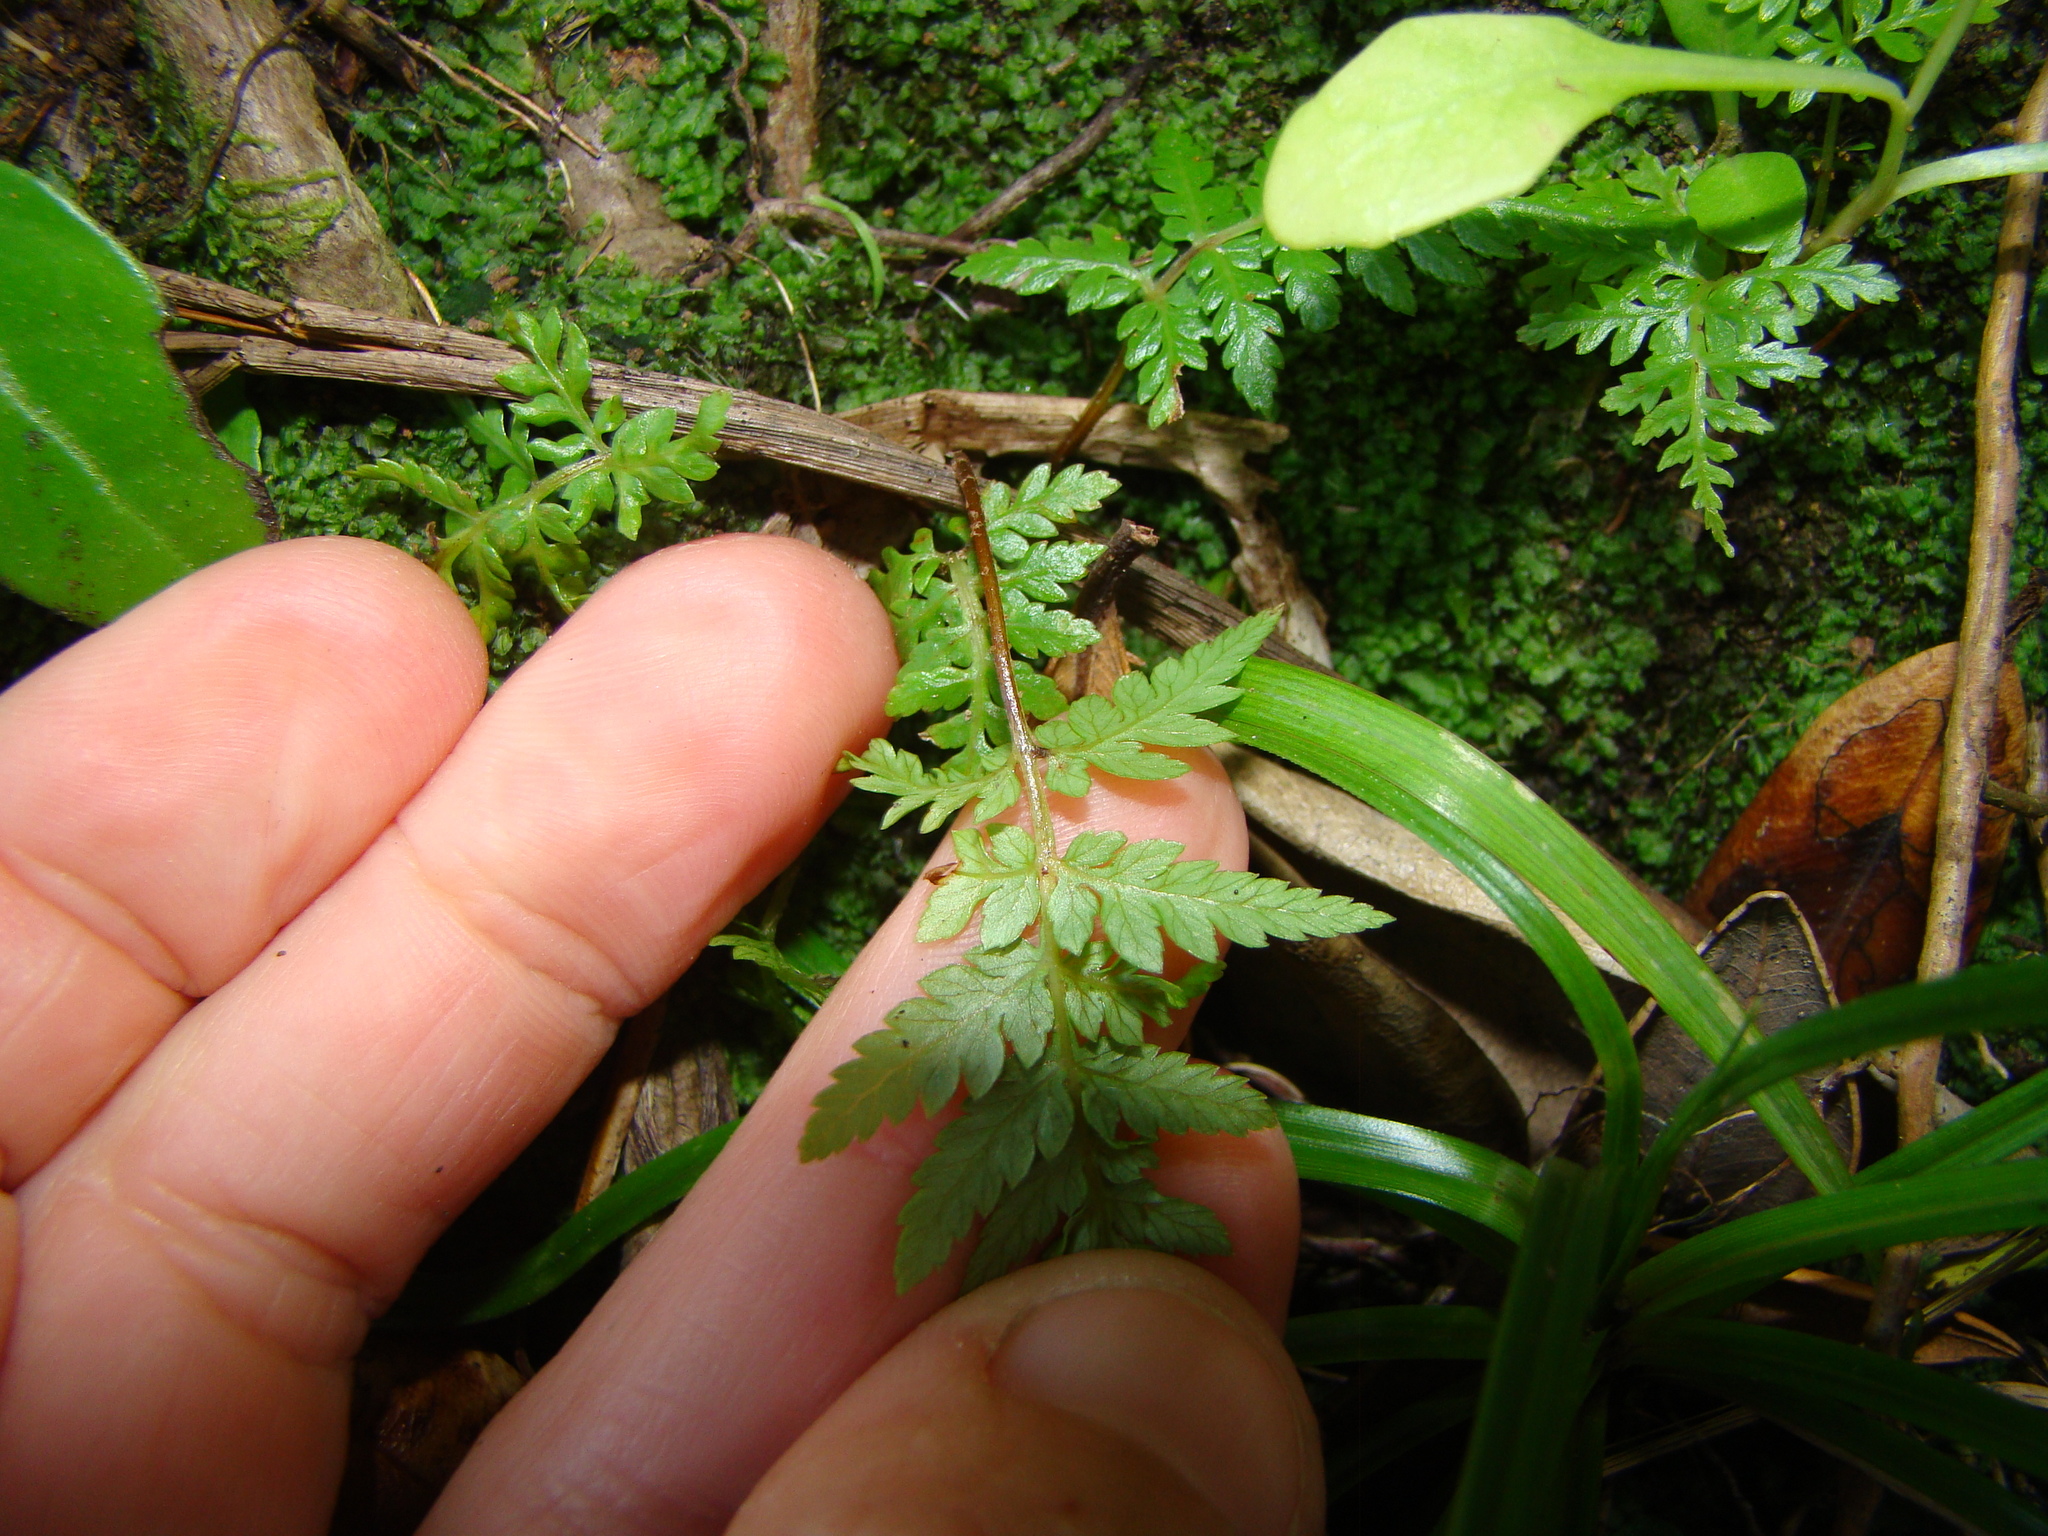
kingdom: Plantae
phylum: Tracheophyta
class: Polypodiopsida
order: Cyatheales
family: Cyatheaceae
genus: Alsophila
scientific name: Alsophila dealbata
